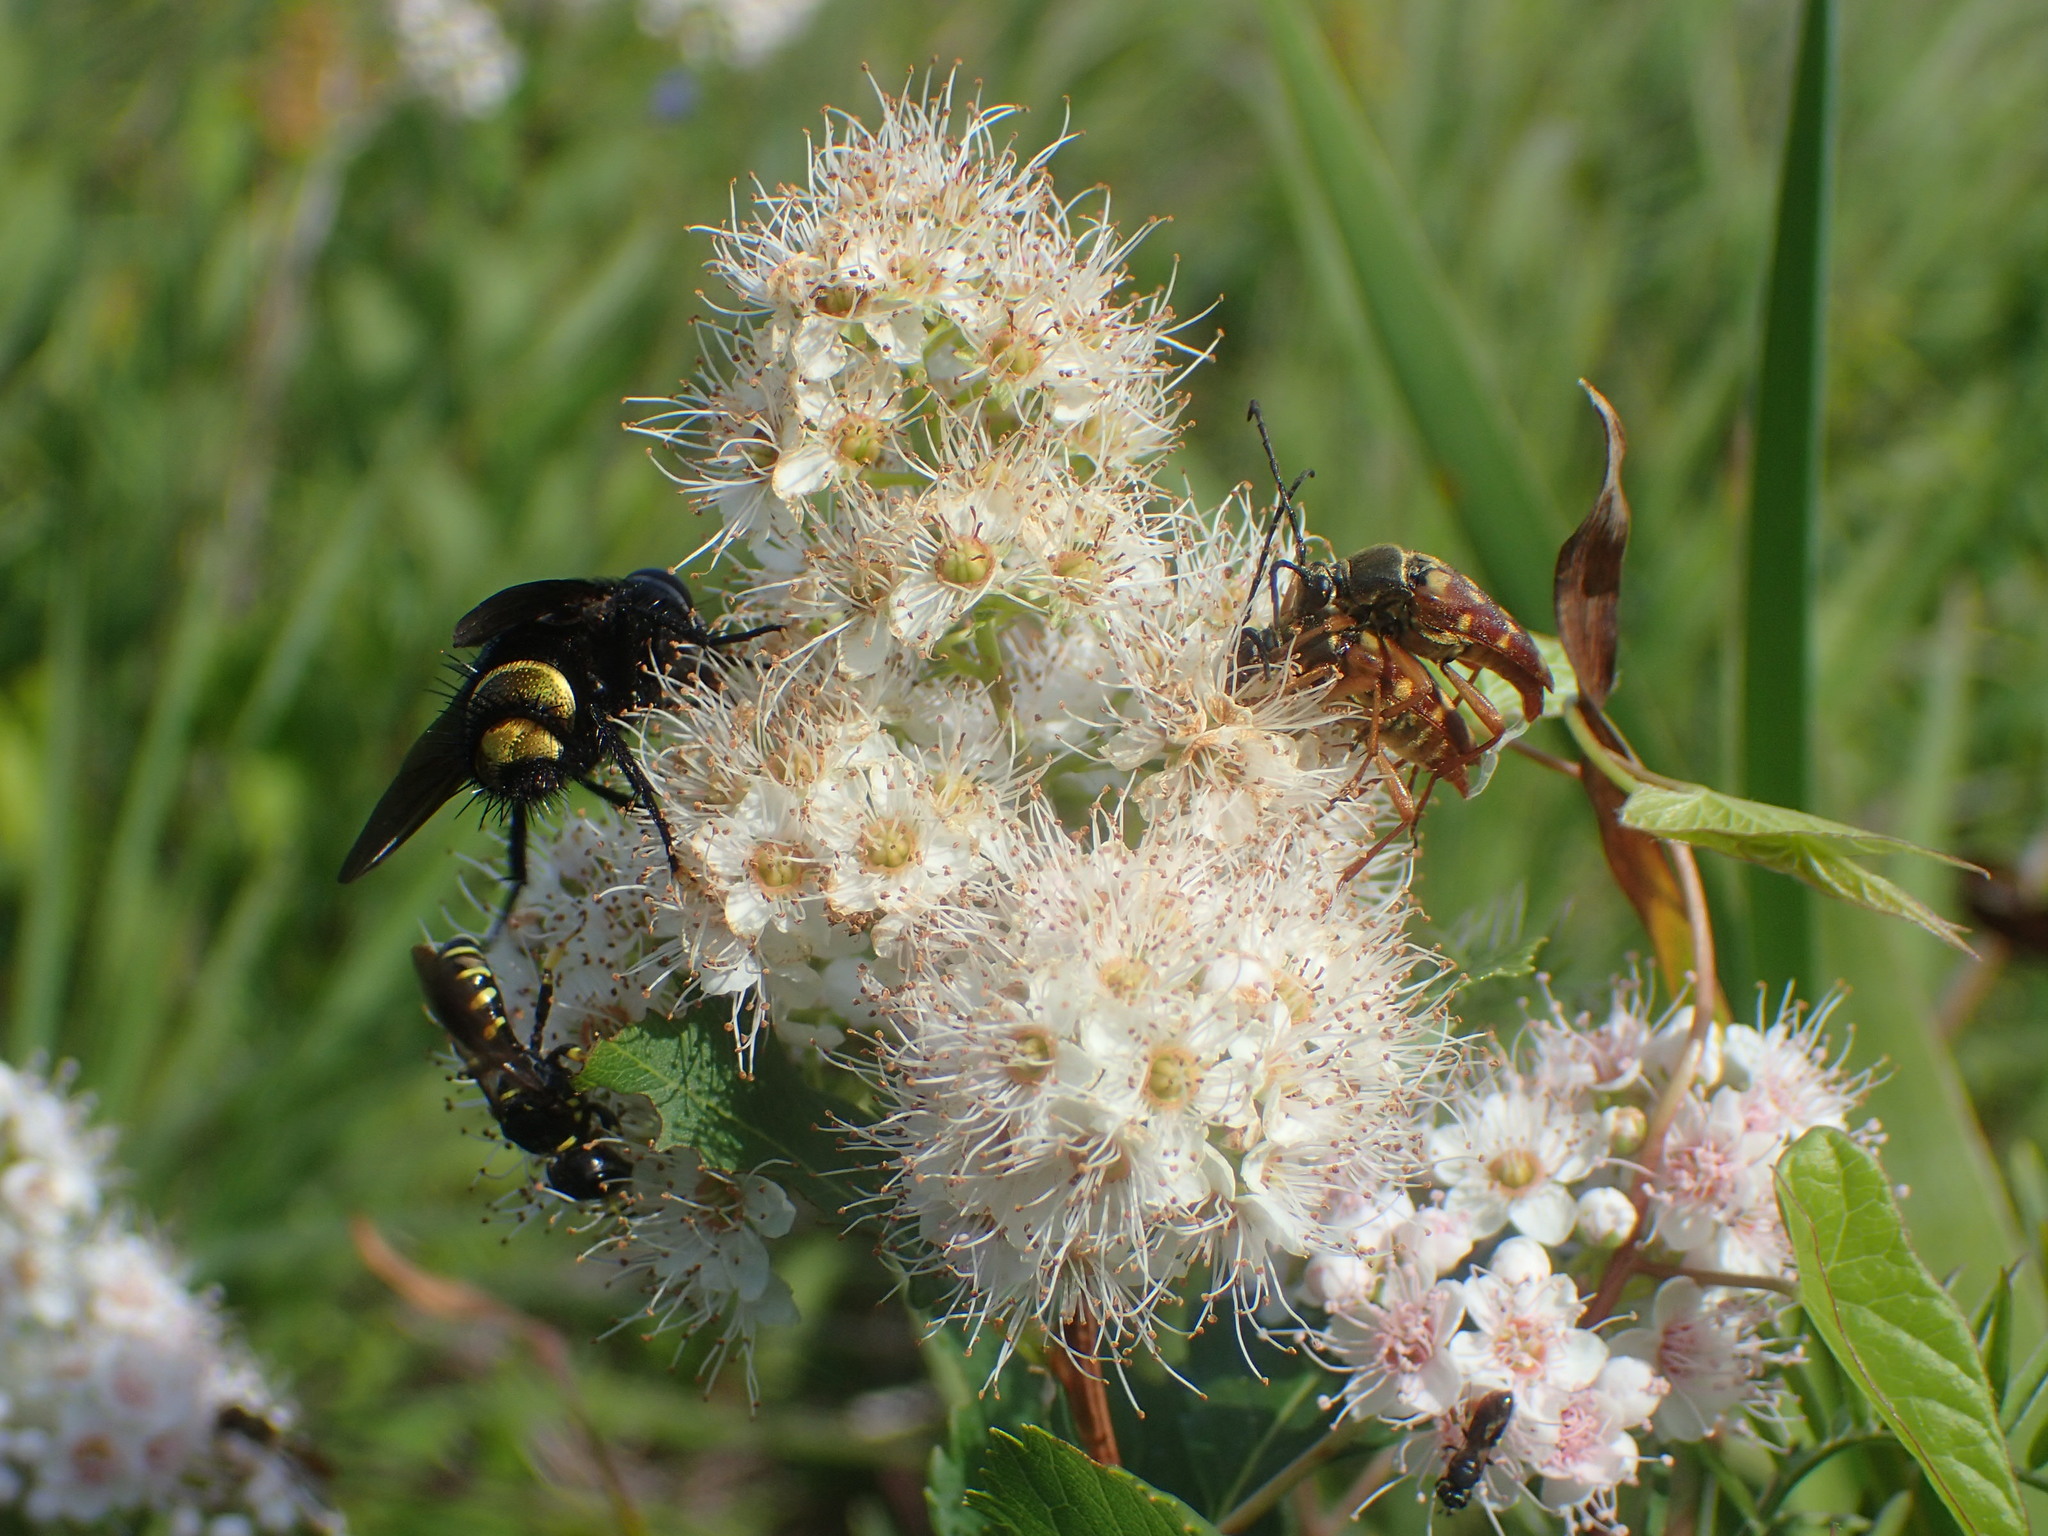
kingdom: Animalia
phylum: Arthropoda
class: Insecta
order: Coleoptera
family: Cerambycidae
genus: Typocerus
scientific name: Typocerus velutinus
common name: Banded longhorn beetle
